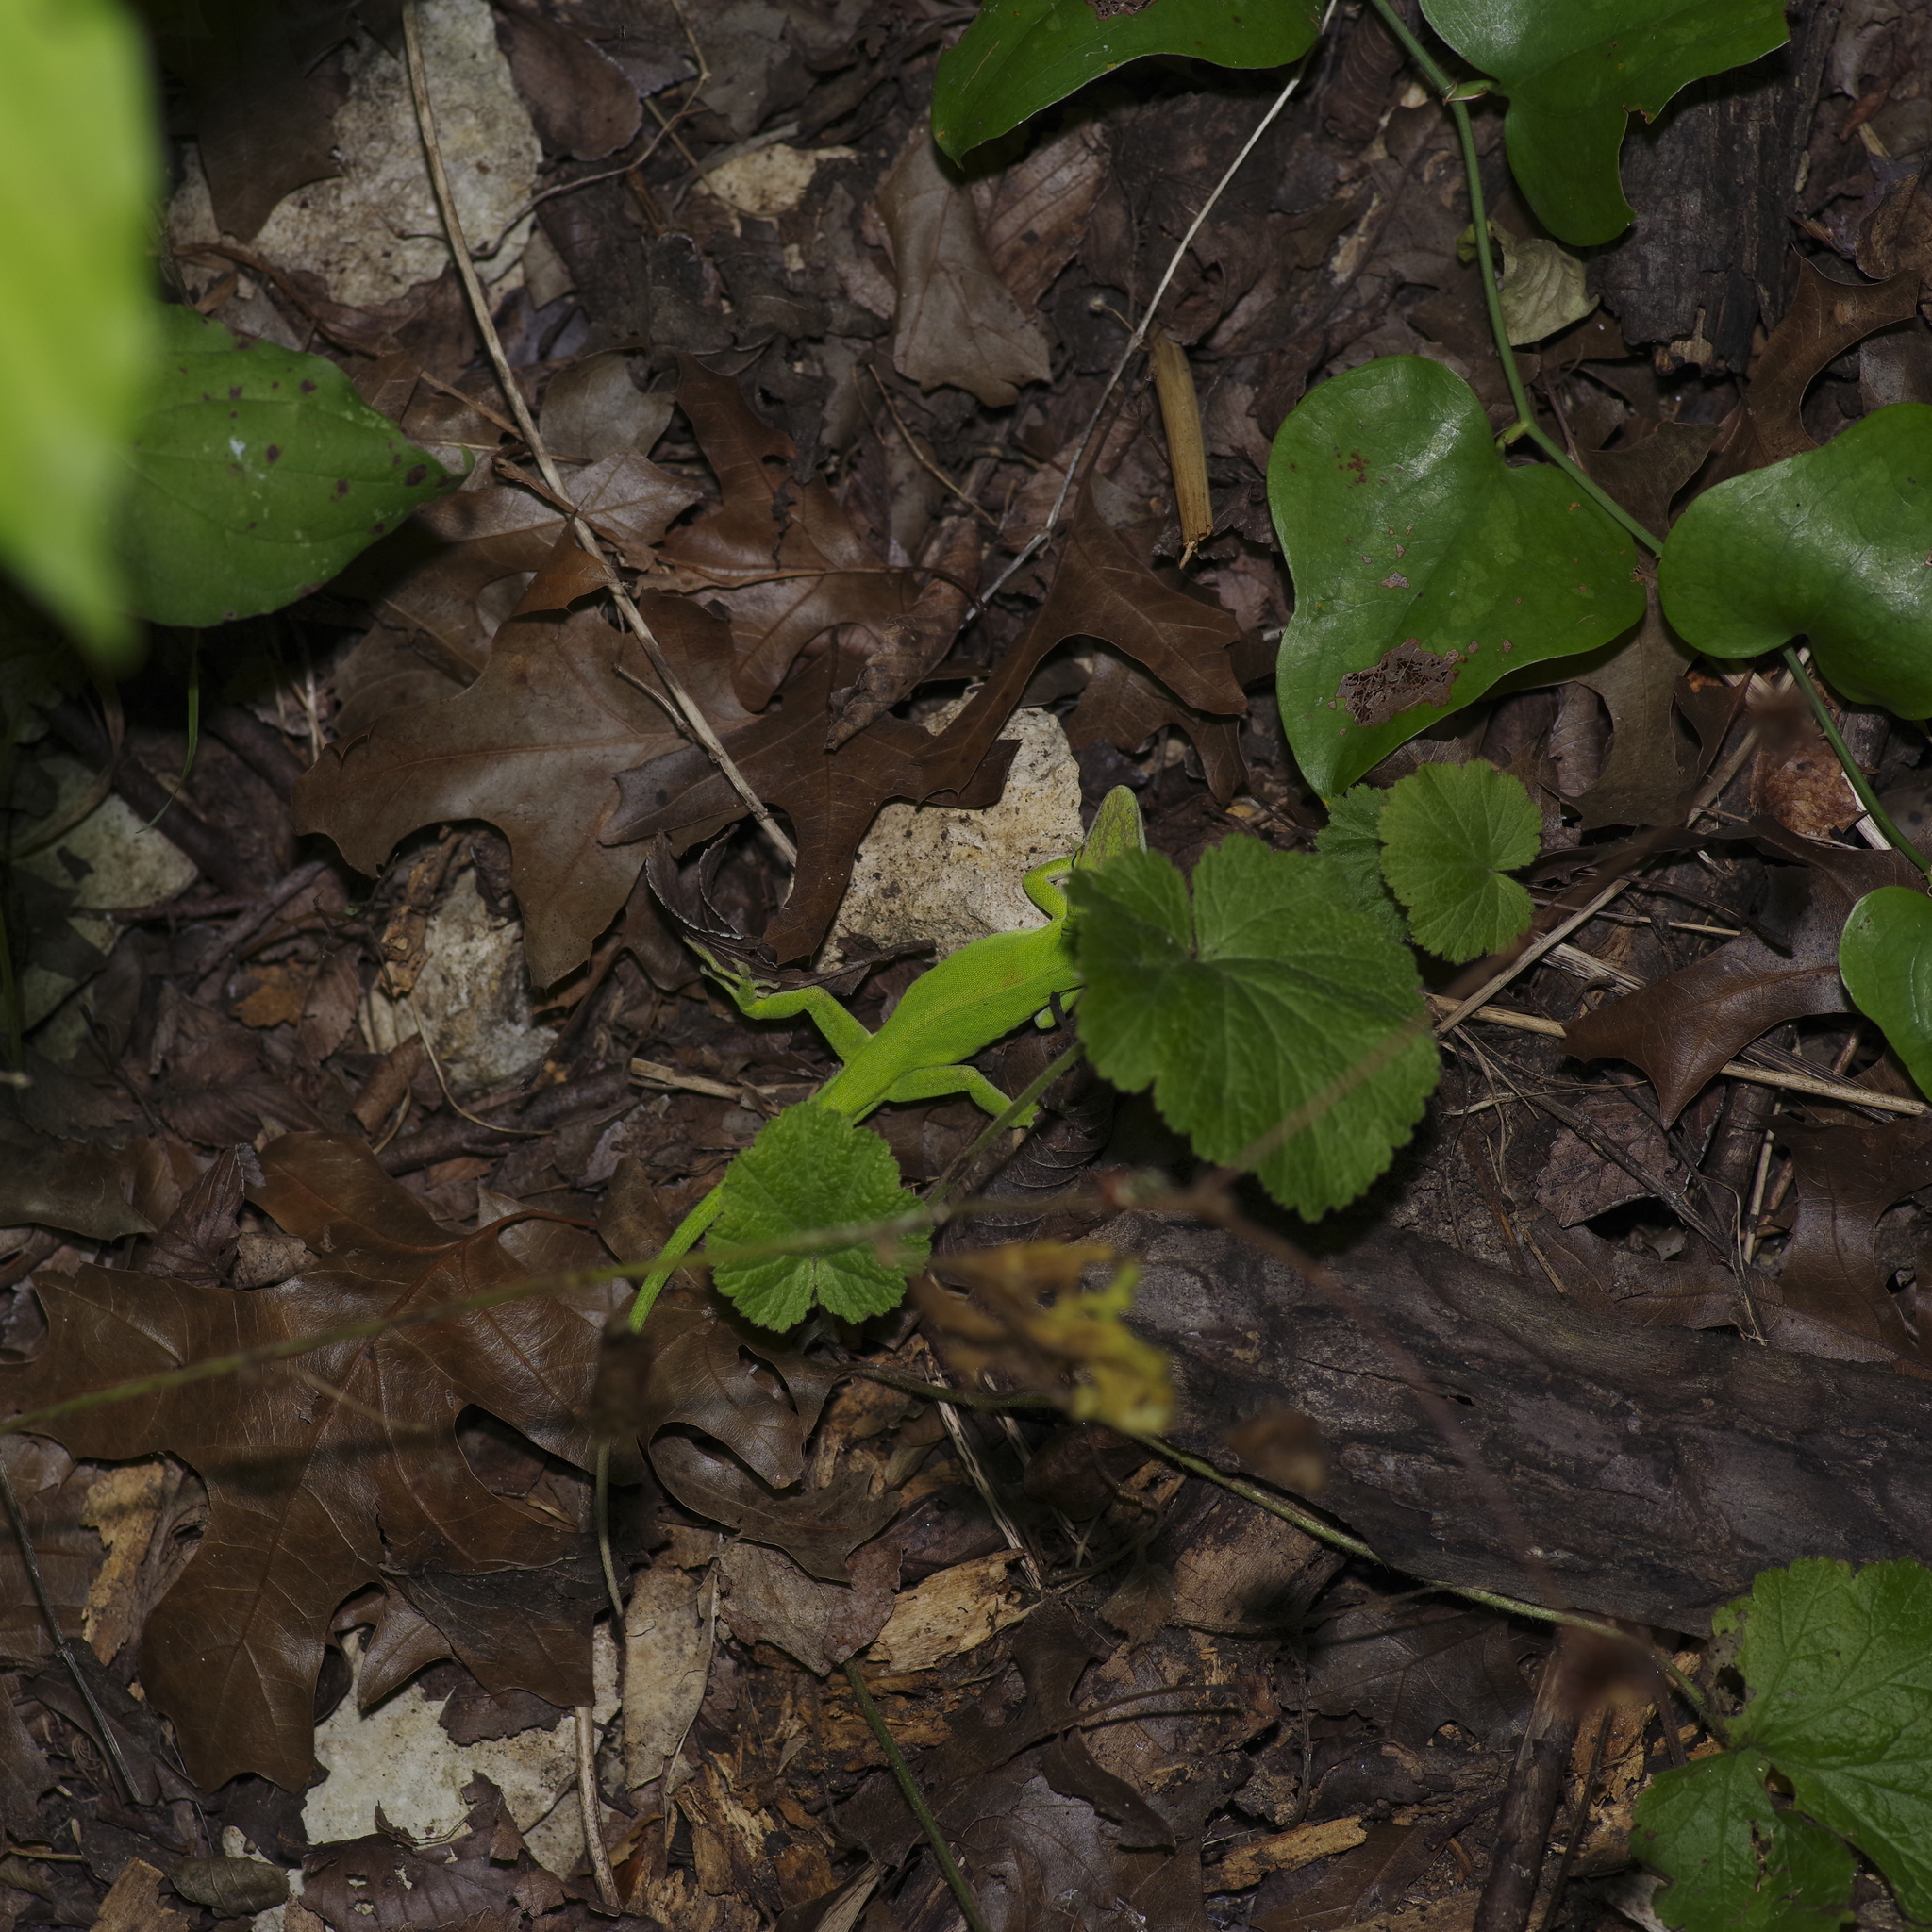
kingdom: Animalia
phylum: Chordata
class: Squamata
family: Dactyloidae
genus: Anolis
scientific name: Anolis carolinensis
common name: Green anole
